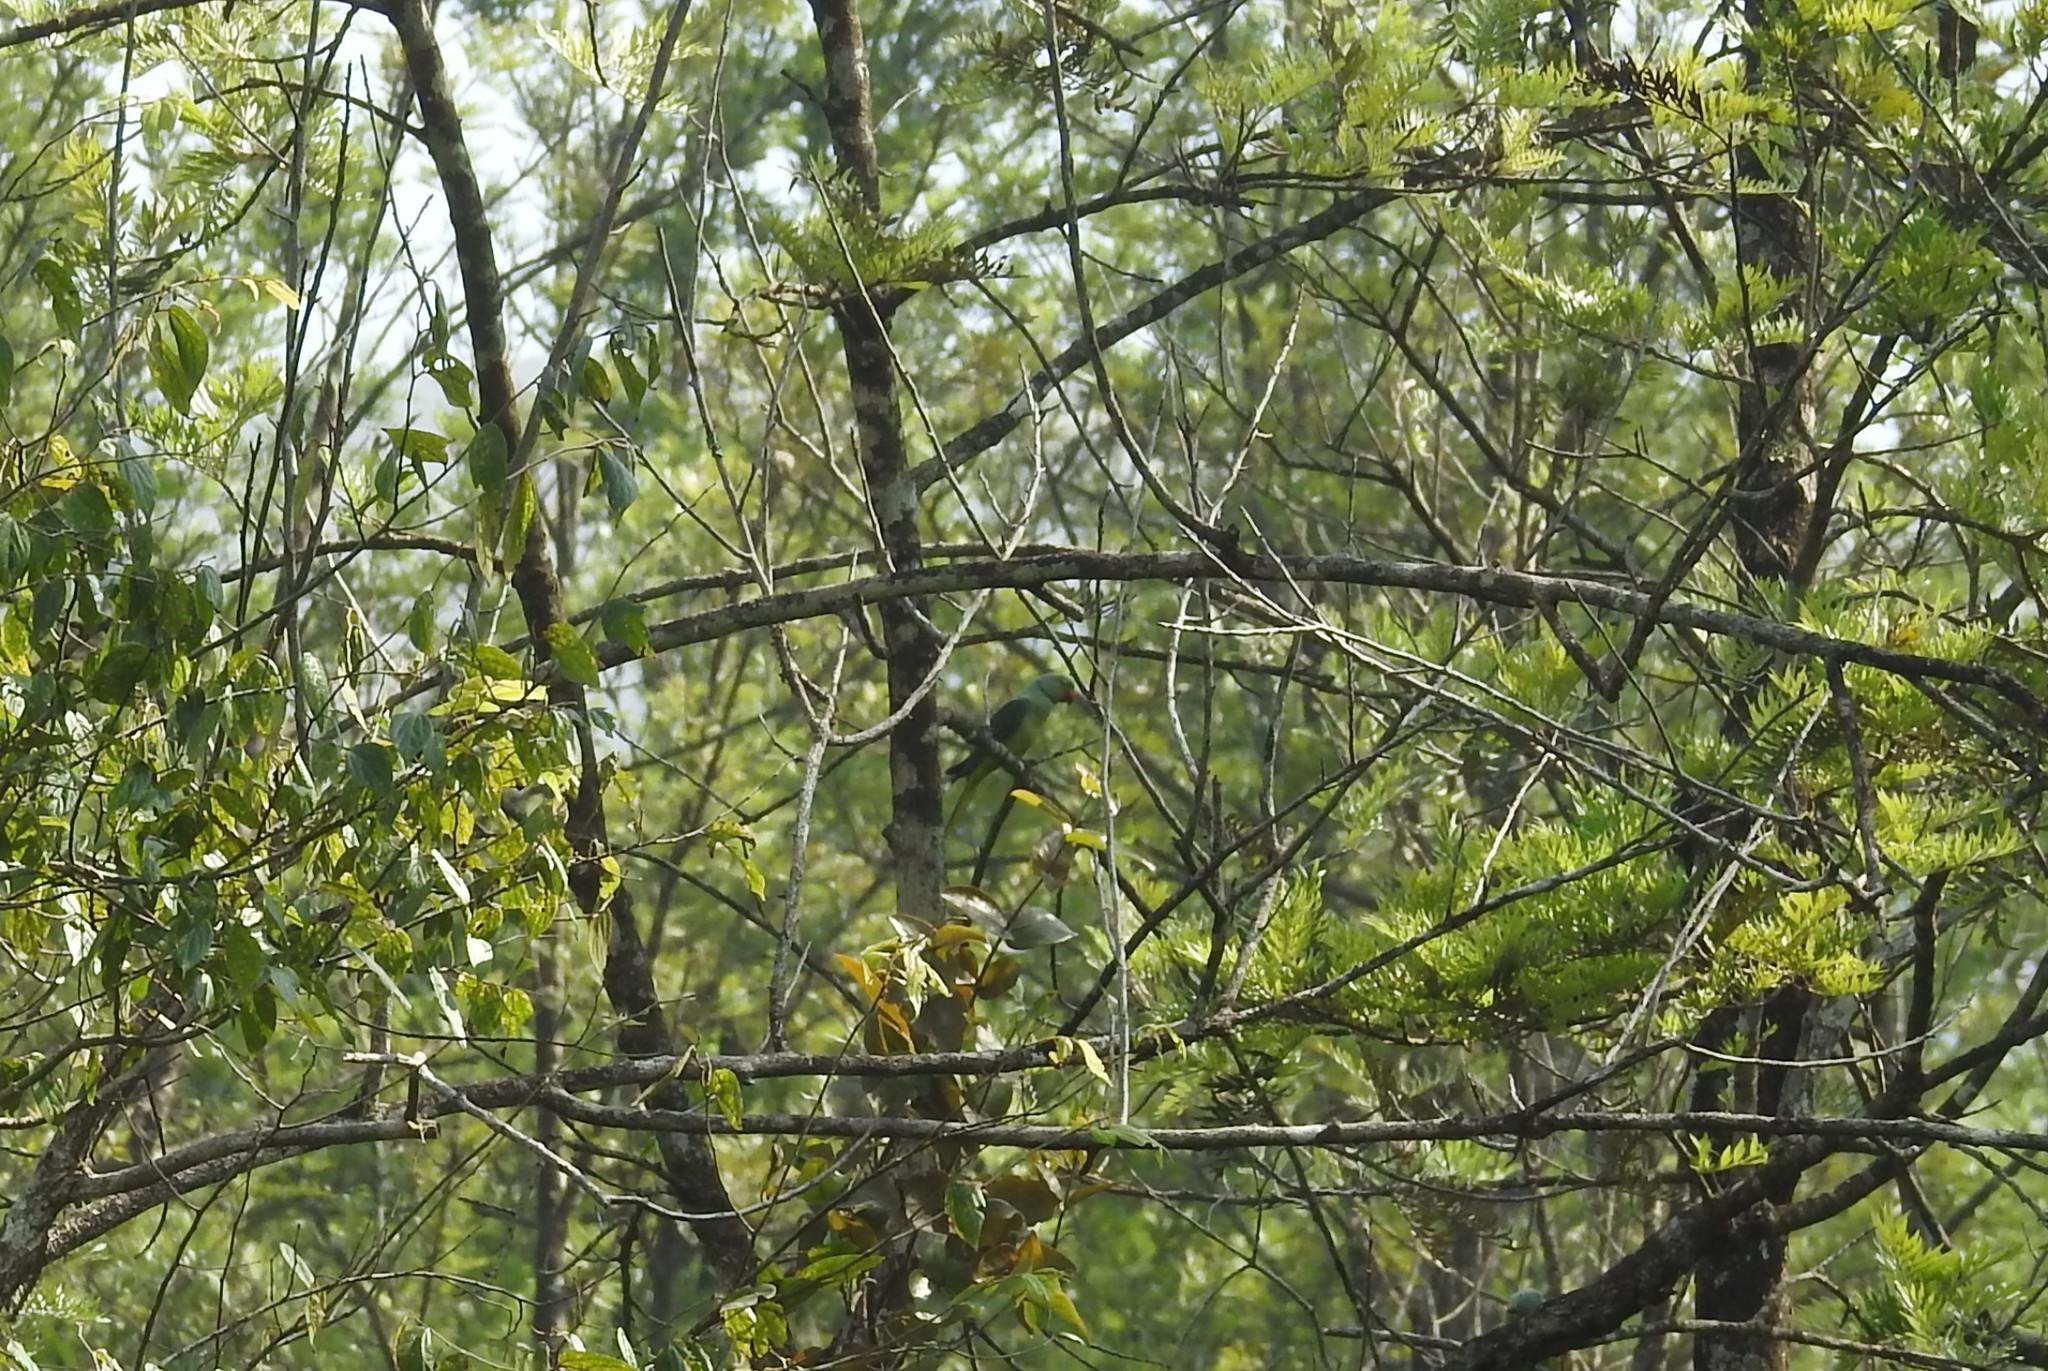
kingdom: Animalia
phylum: Chordata
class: Aves
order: Psittaciformes
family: Psittacidae
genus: Psittacula
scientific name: Psittacula krameri
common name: Rose-ringed parakeet
